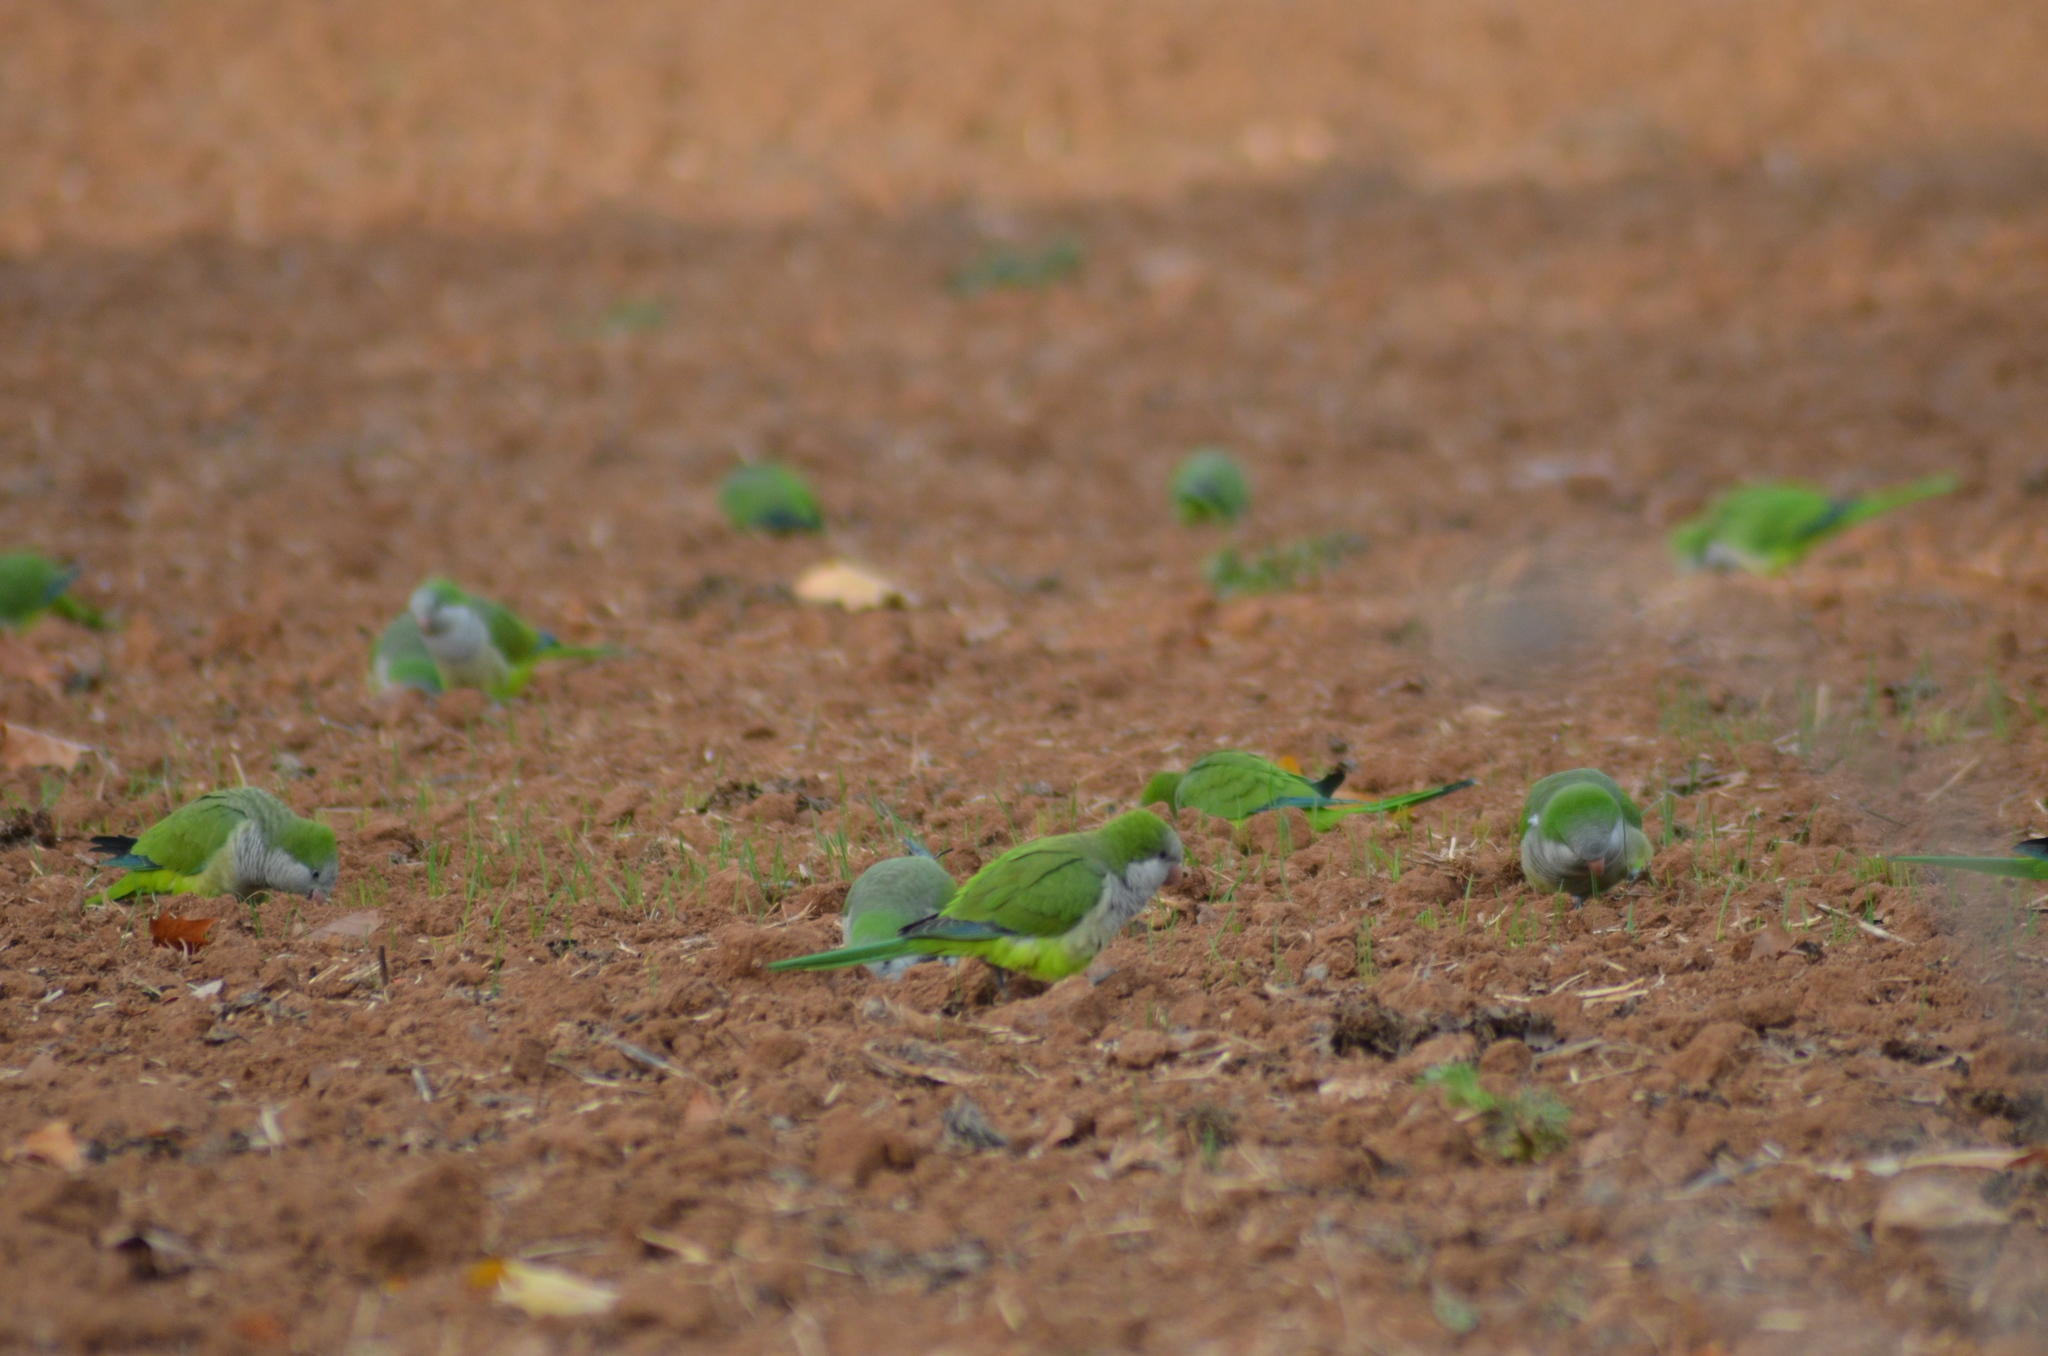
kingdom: Animalia
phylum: Chordata
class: Aves
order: Psittaciformes
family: Psittacidae
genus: Myiopsitta
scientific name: Myiopsitta monachus
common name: Monk parakeet
